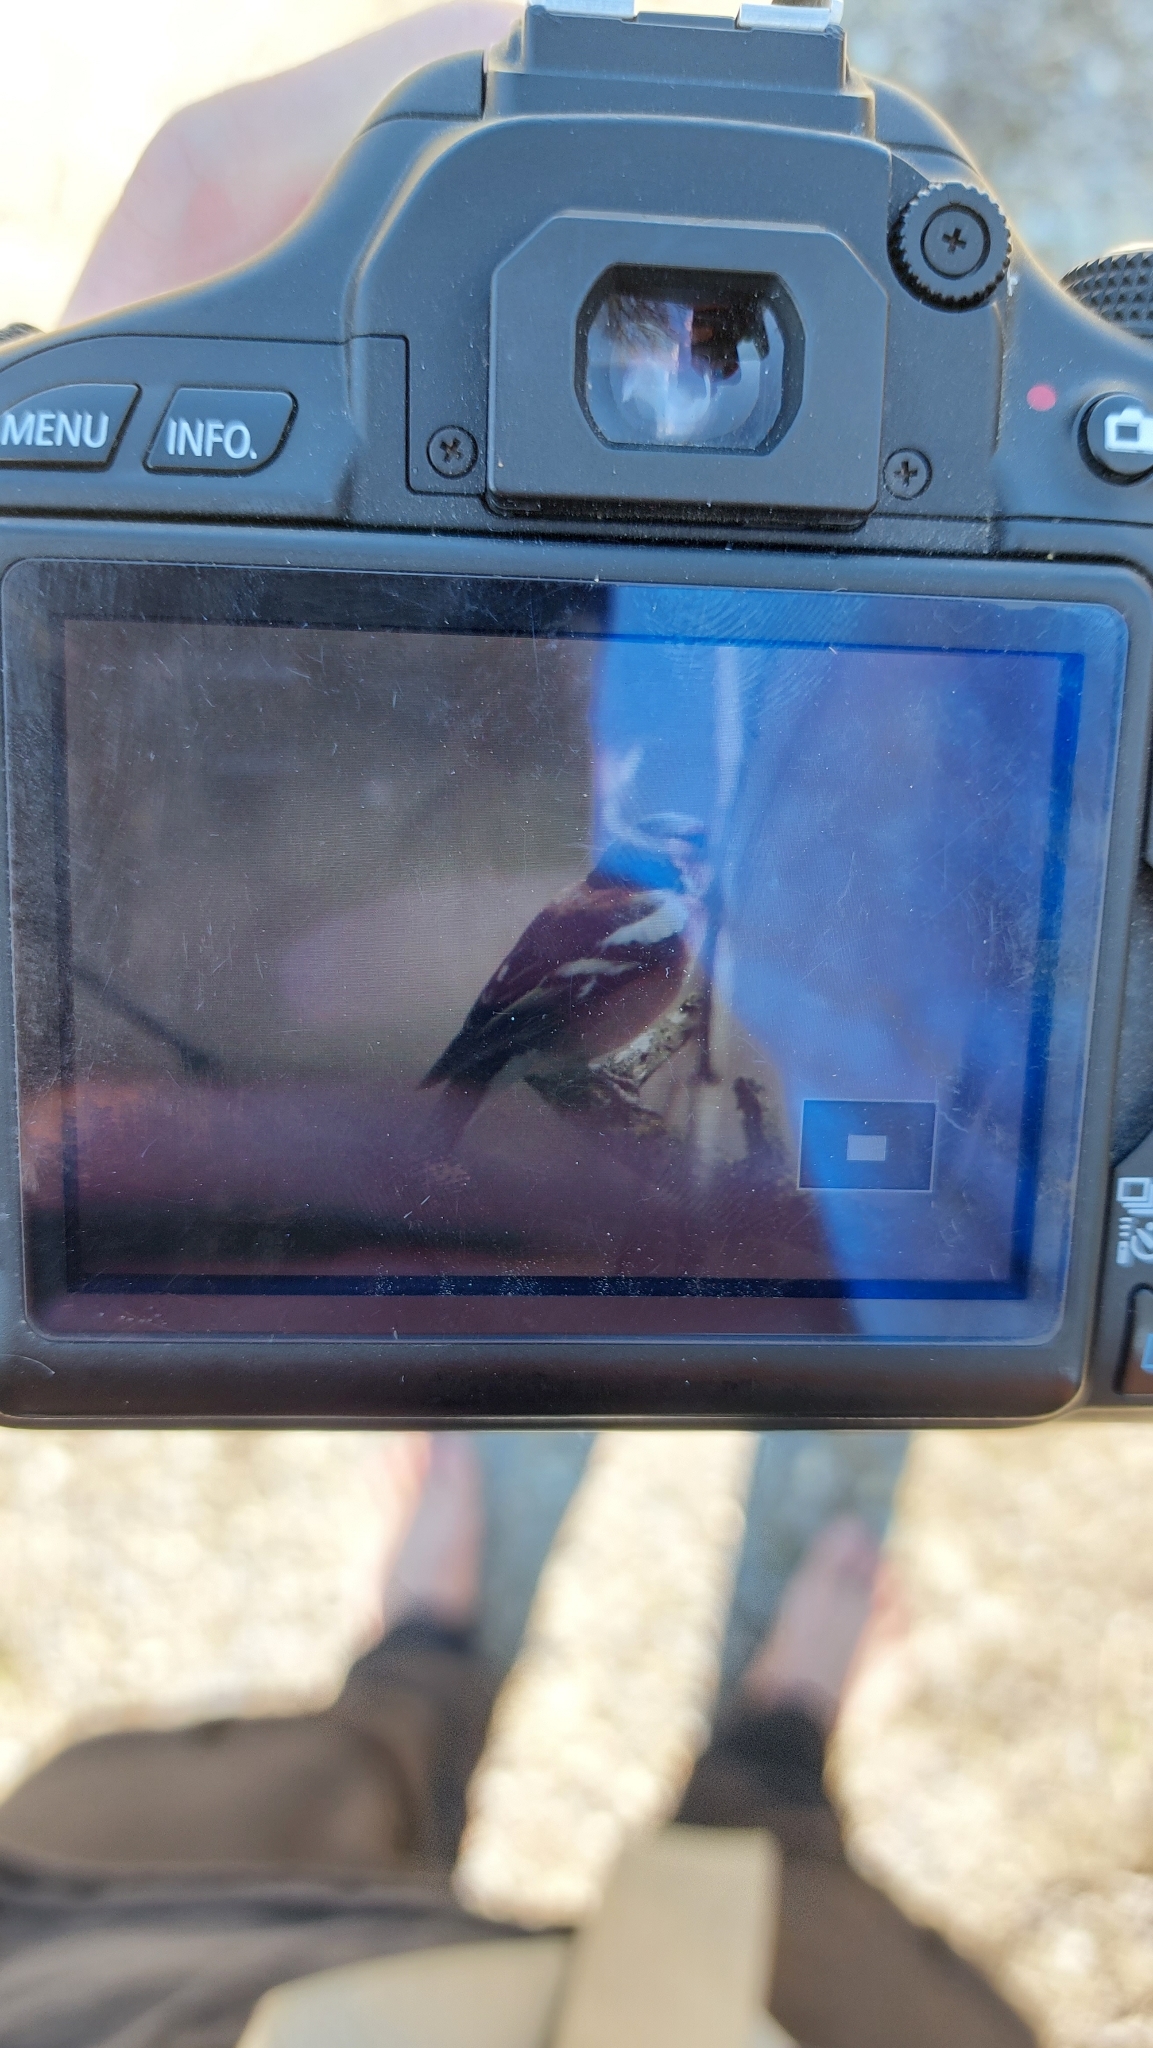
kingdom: Animalia
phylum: Chordata
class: Aves
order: Passeriformes
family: Fringillidae
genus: Fringilla
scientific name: Fringilla coelebs
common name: Common chaffinch
